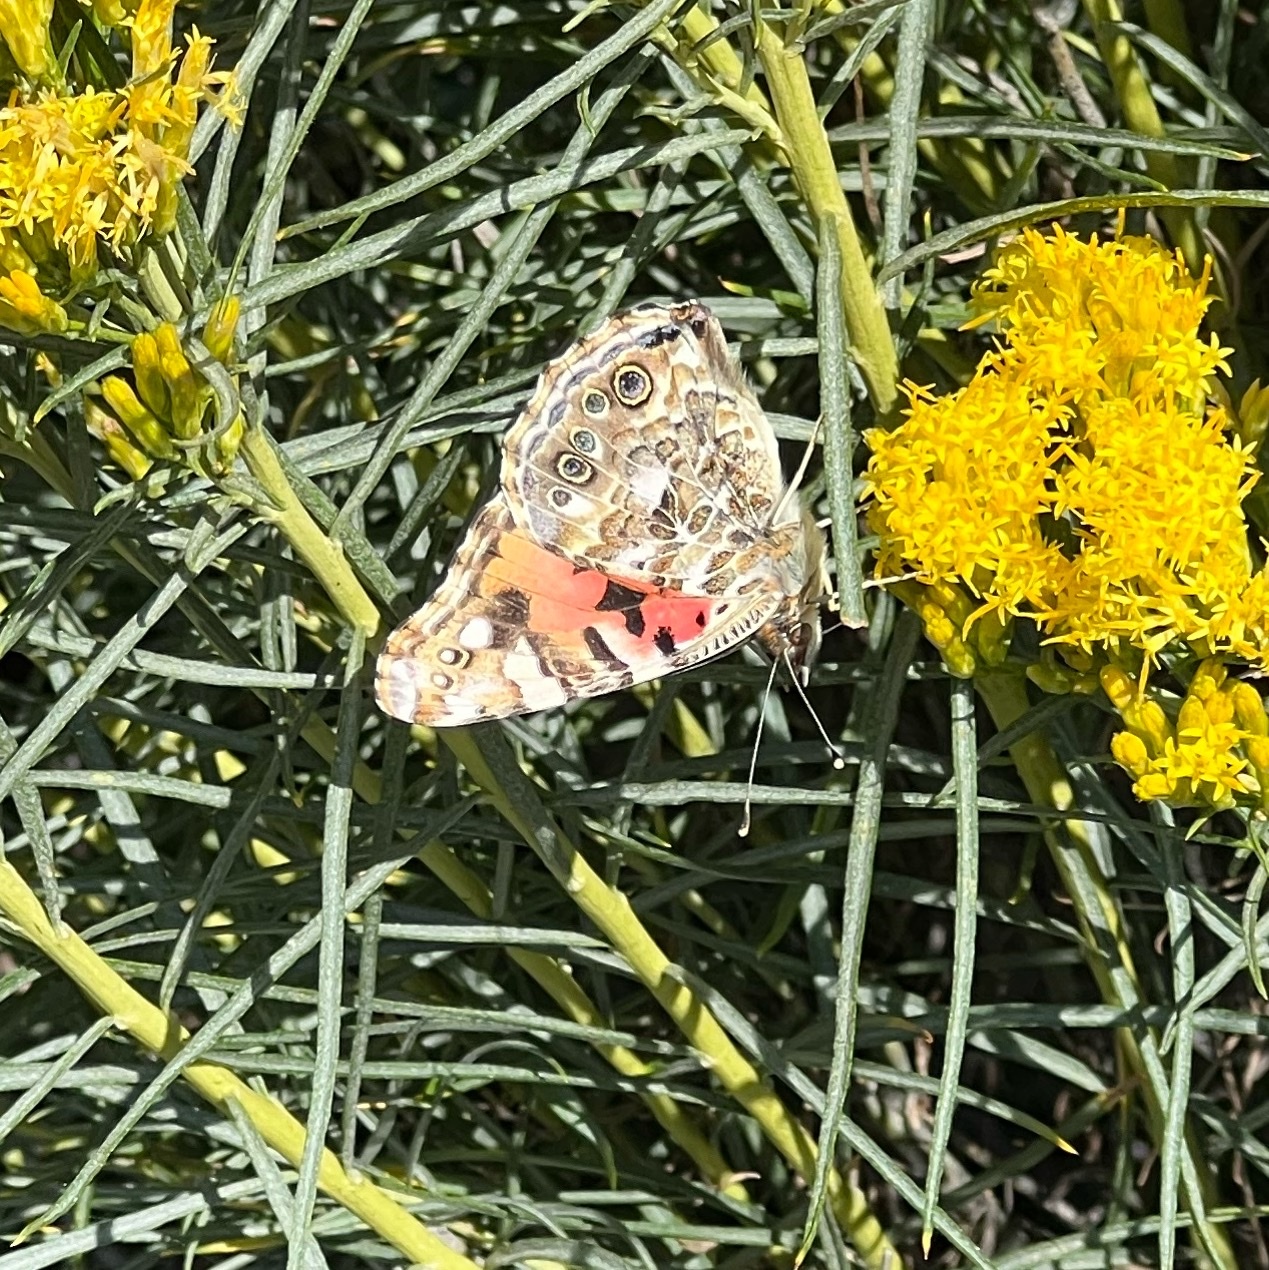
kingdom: Animalia
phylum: Arthropoda
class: Insecta
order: Lepidoptera
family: Nymphalidae
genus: Vanessa
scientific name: Vanessa cardui
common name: Painted lady
